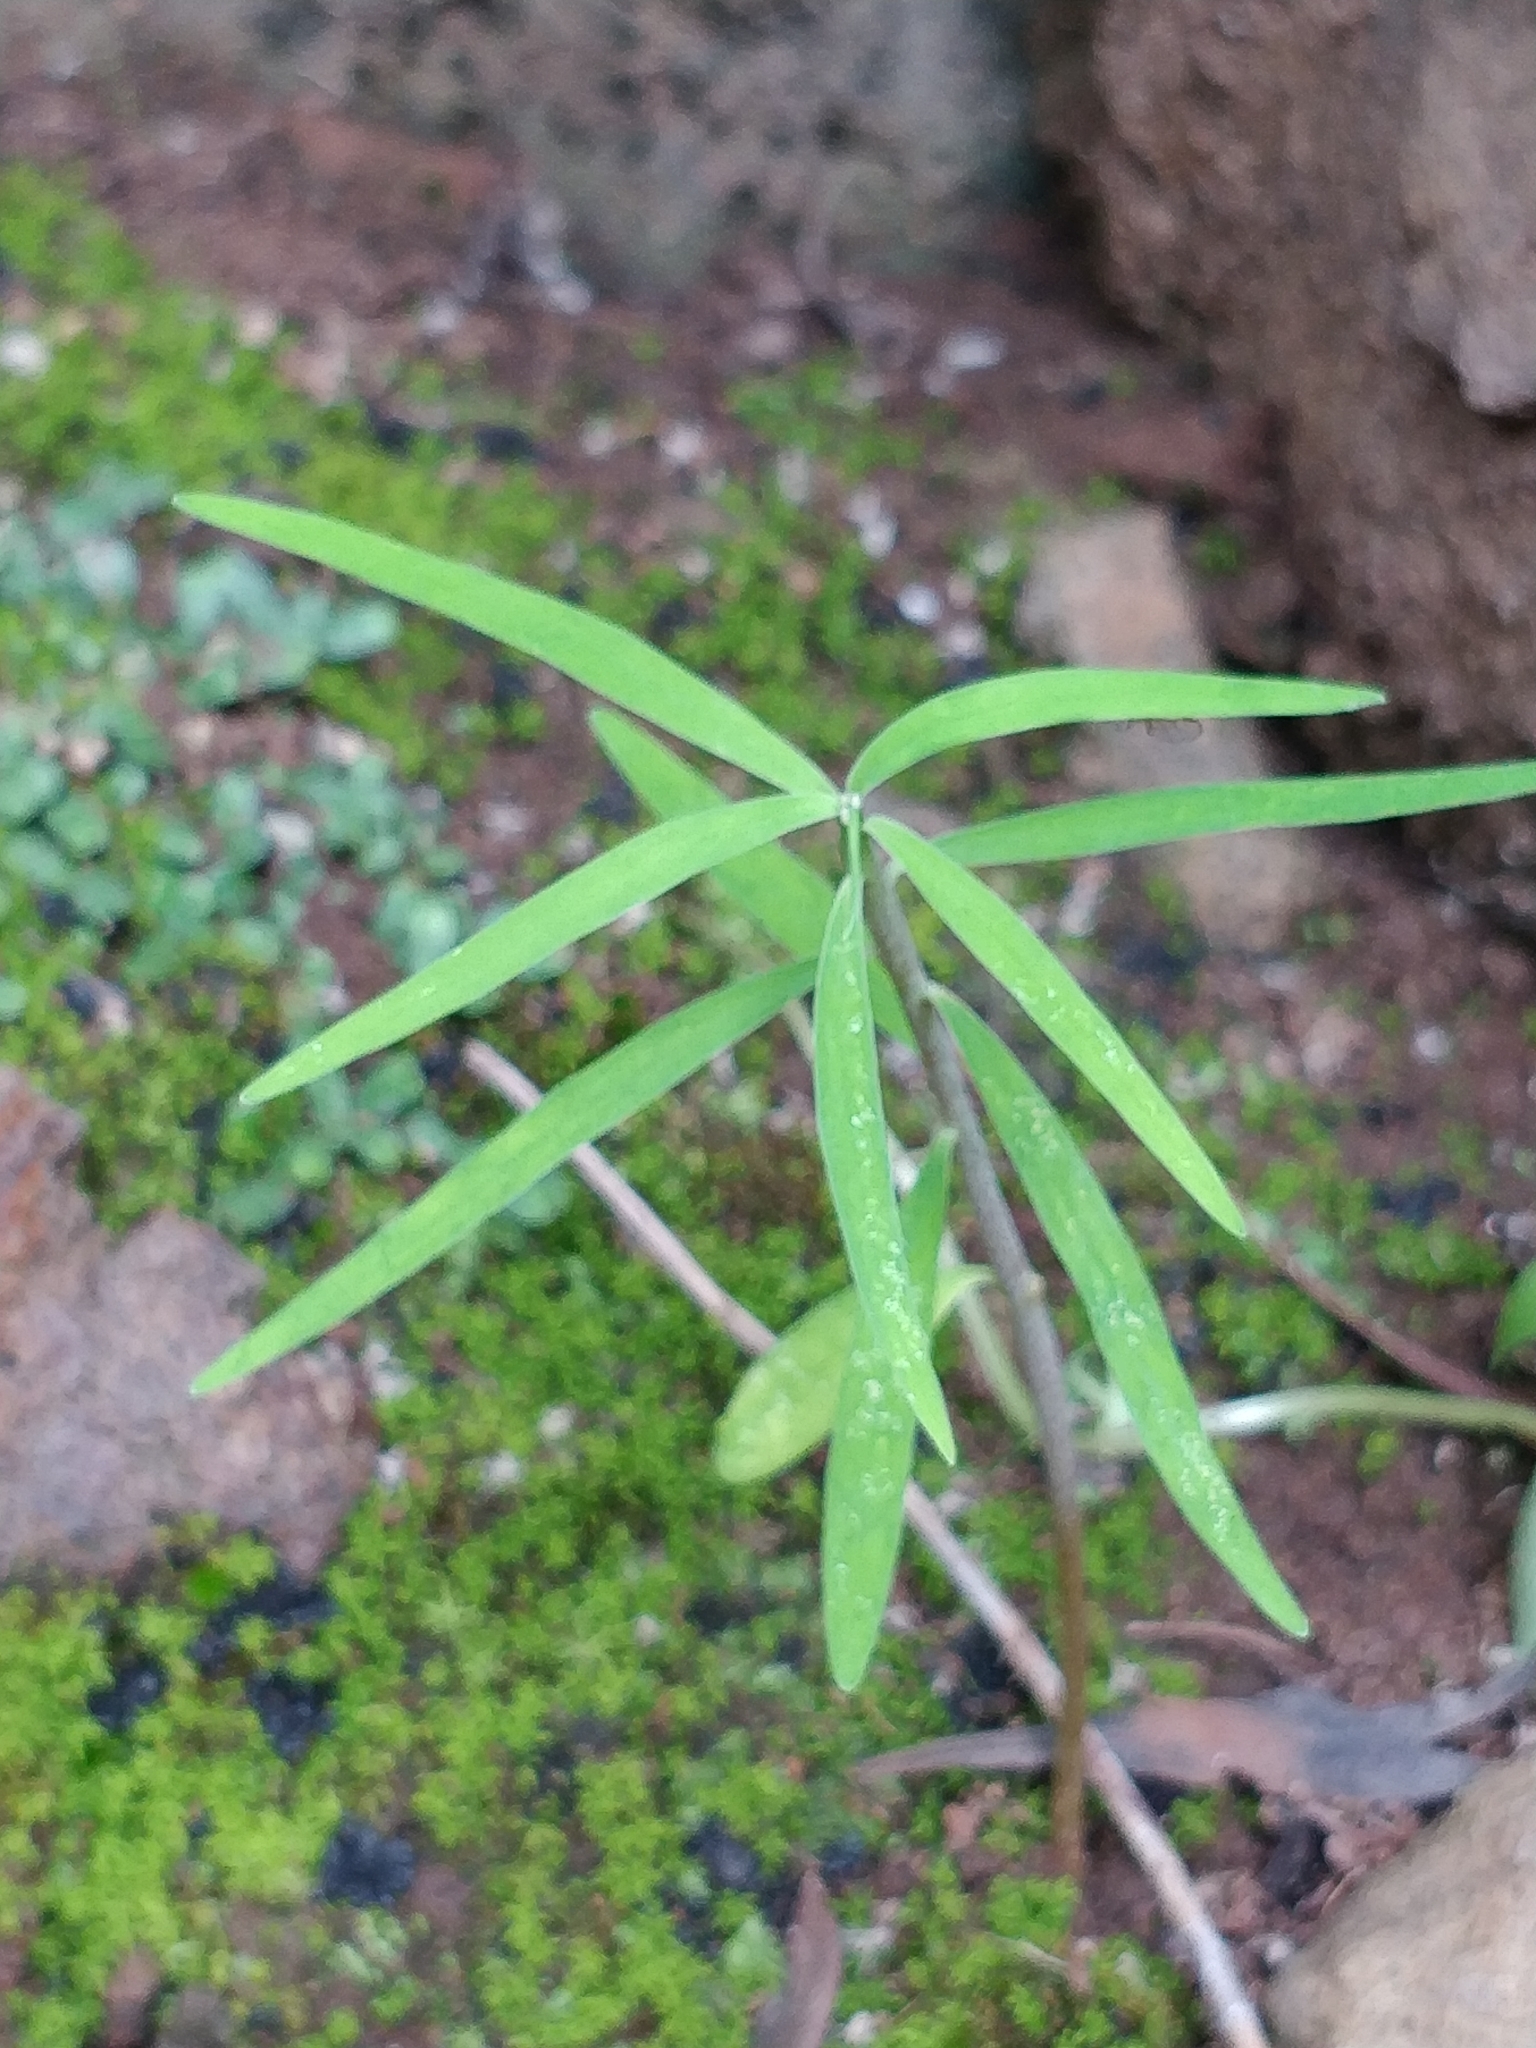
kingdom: Plantae
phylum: Tracheophyta
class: Magnoliopsida
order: Malpighiales
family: Euphorbiaceae
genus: Euphorbia
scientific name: Euphorbia piscatoria
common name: Fish-stunning spurge
